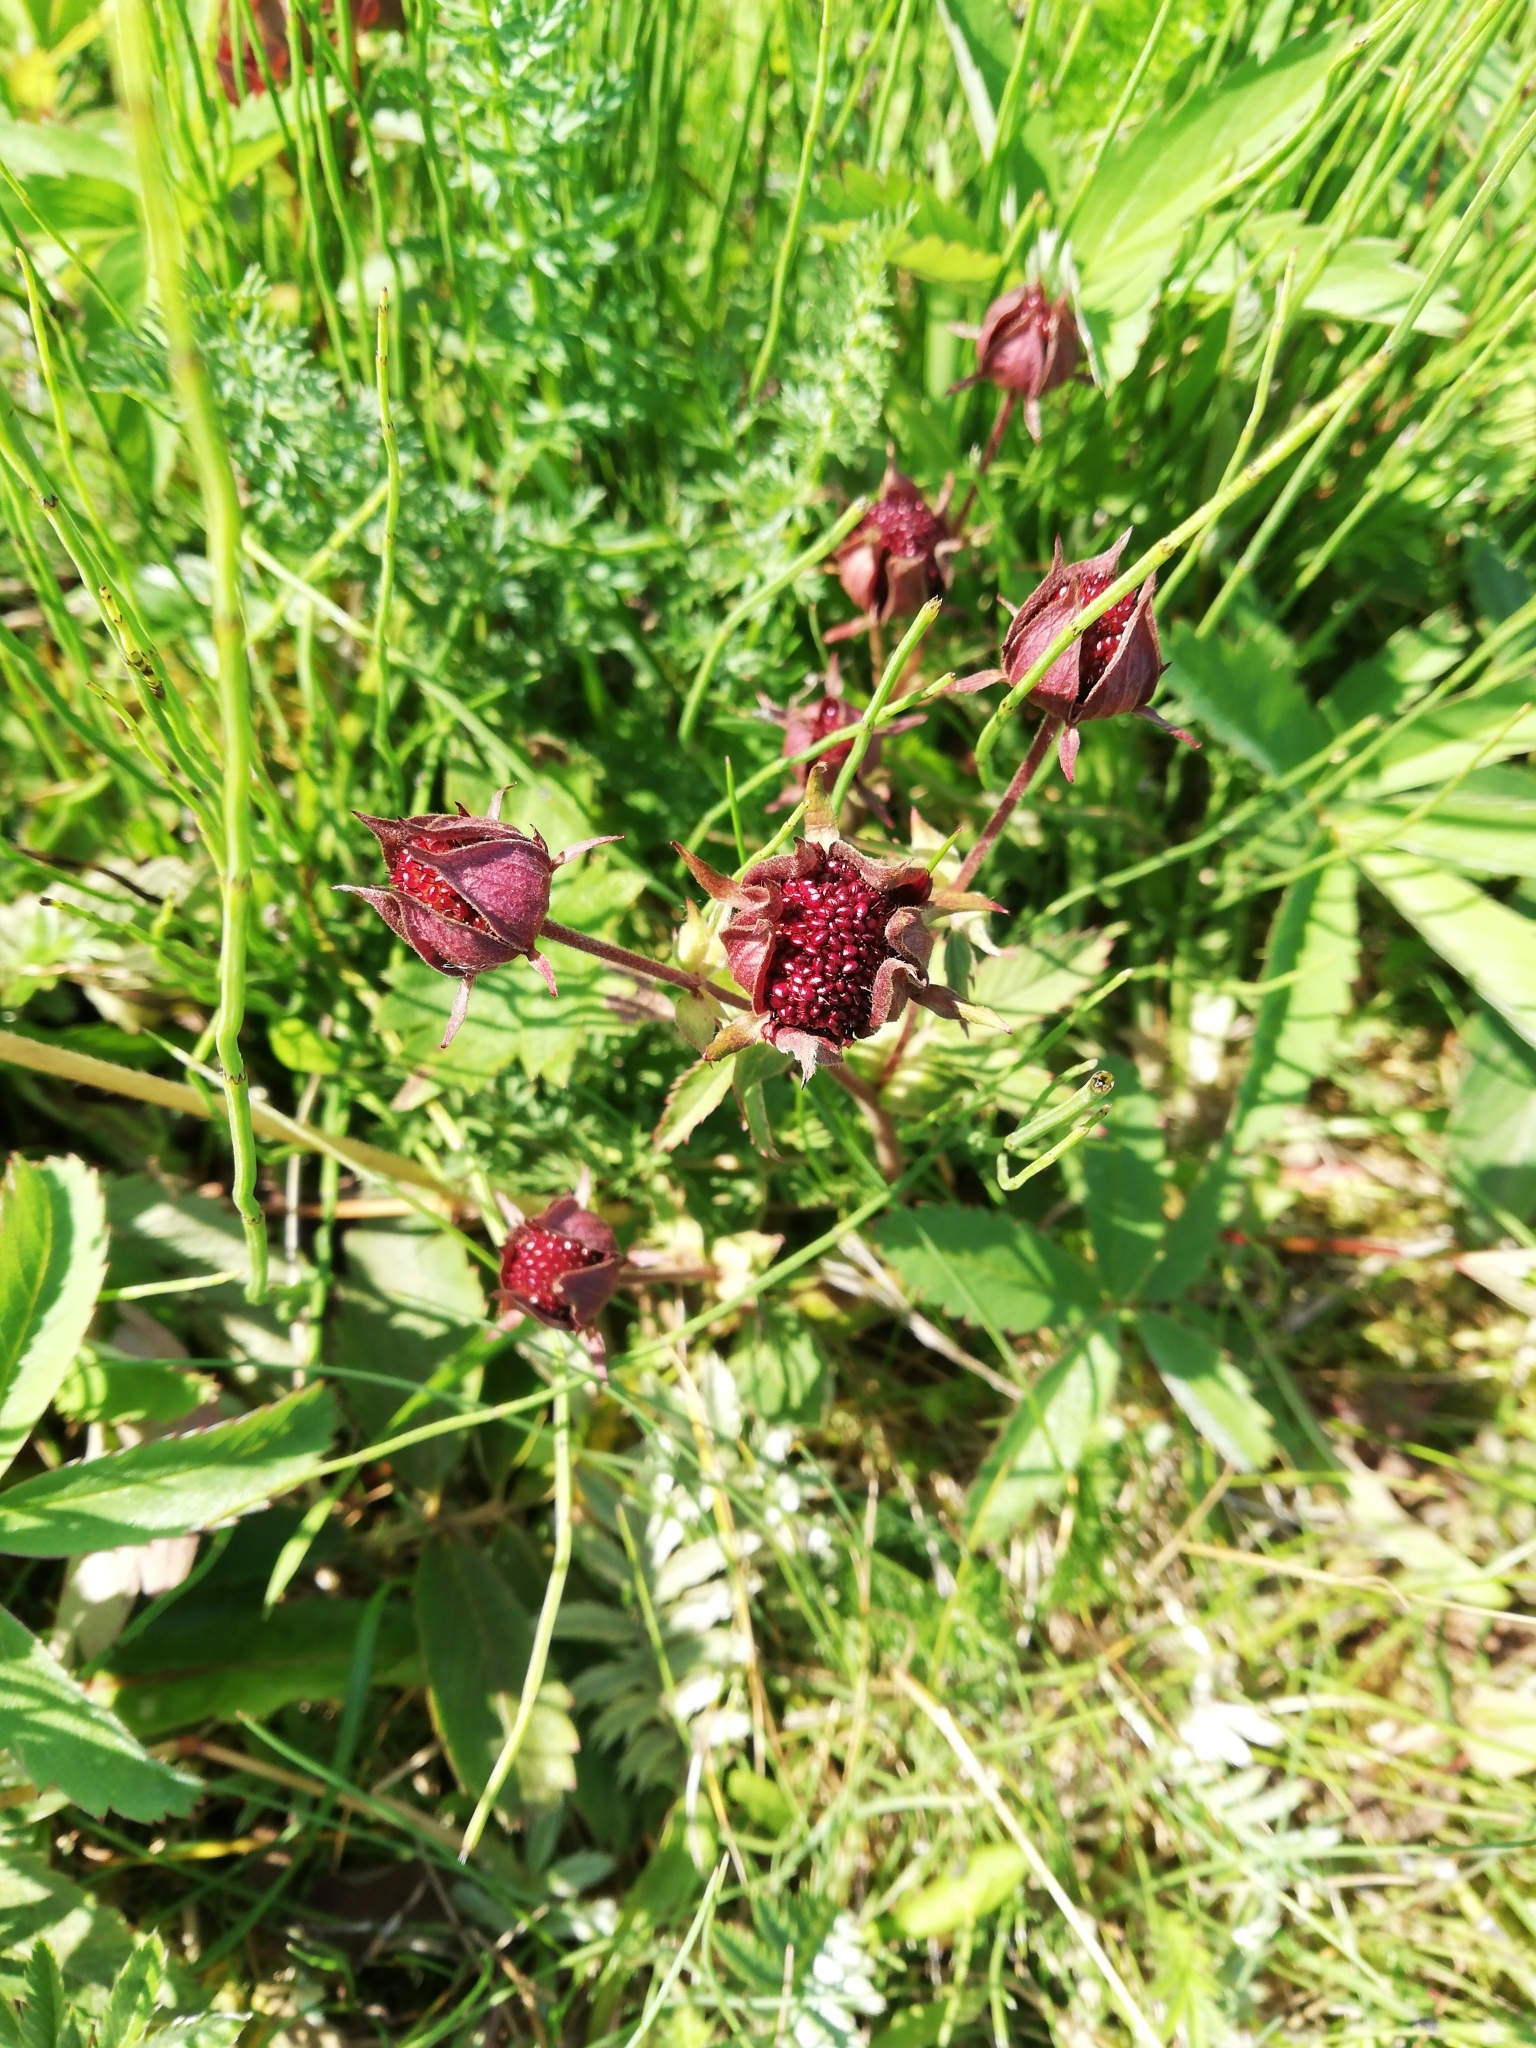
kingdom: Plantae
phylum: Tracheophyta
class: Magnoliopsida
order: Rosales
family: Rosaceae
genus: Comarum
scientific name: Comarum palustre
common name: Marsh cinquefoil
